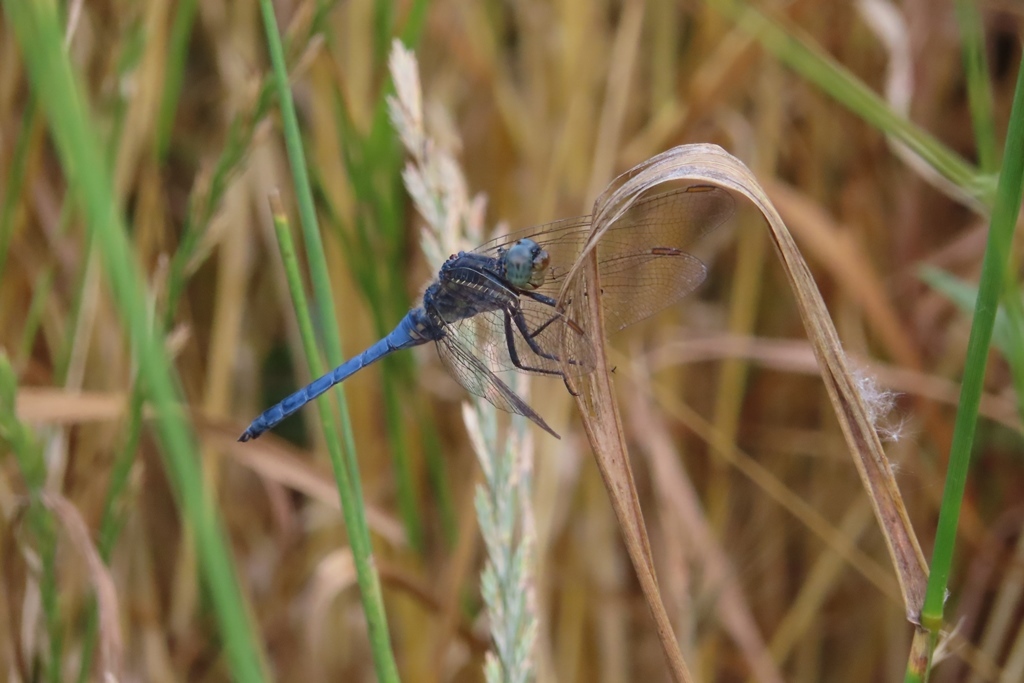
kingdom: Animalia
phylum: Arthropoda
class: Insecta
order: Odonata
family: Libellulidae
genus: Orthetrum
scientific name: Orthetrum coerulescens
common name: Keeled skimmer
